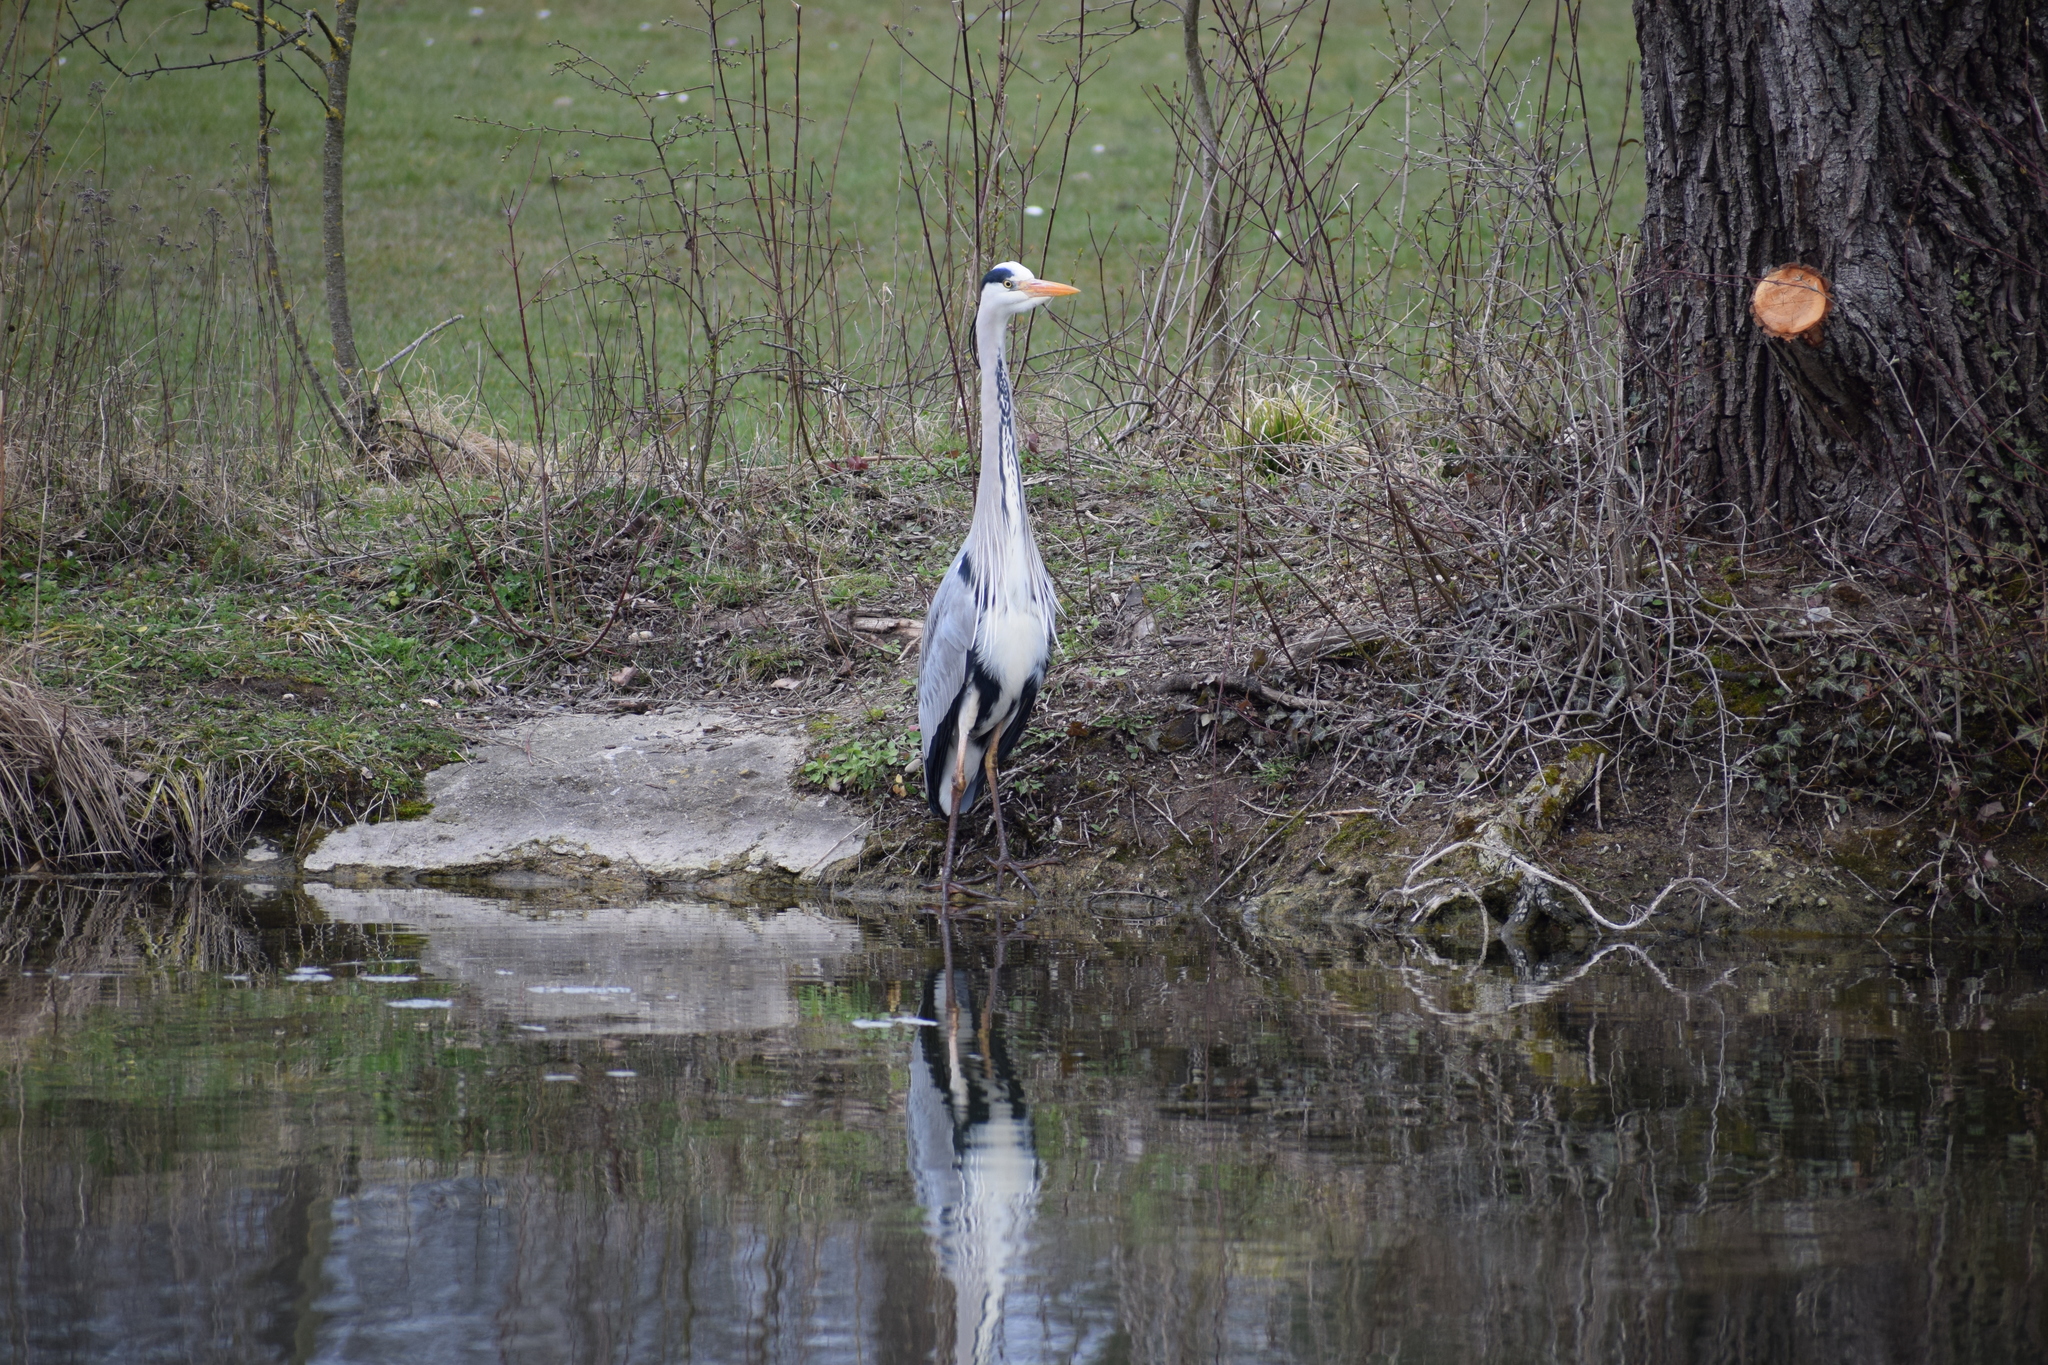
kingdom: Animalia
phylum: Chordata
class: Aves
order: Pelecaniformes
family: Ardeidae
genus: Ardea
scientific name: Ardea cinerea
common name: Grey heron
